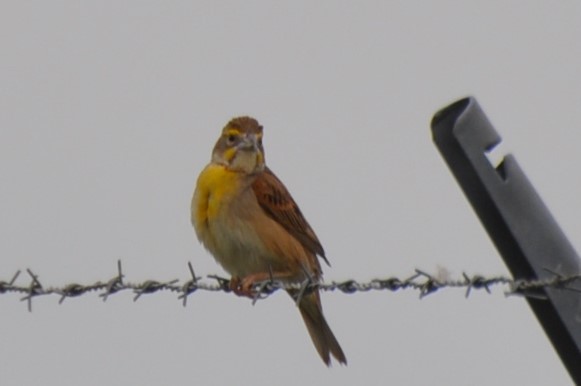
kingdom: Animalia
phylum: Chordata
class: Aves
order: Passeriformes
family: Cardinalidae
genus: Spiza
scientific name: Spiza americana
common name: Dickcissel
